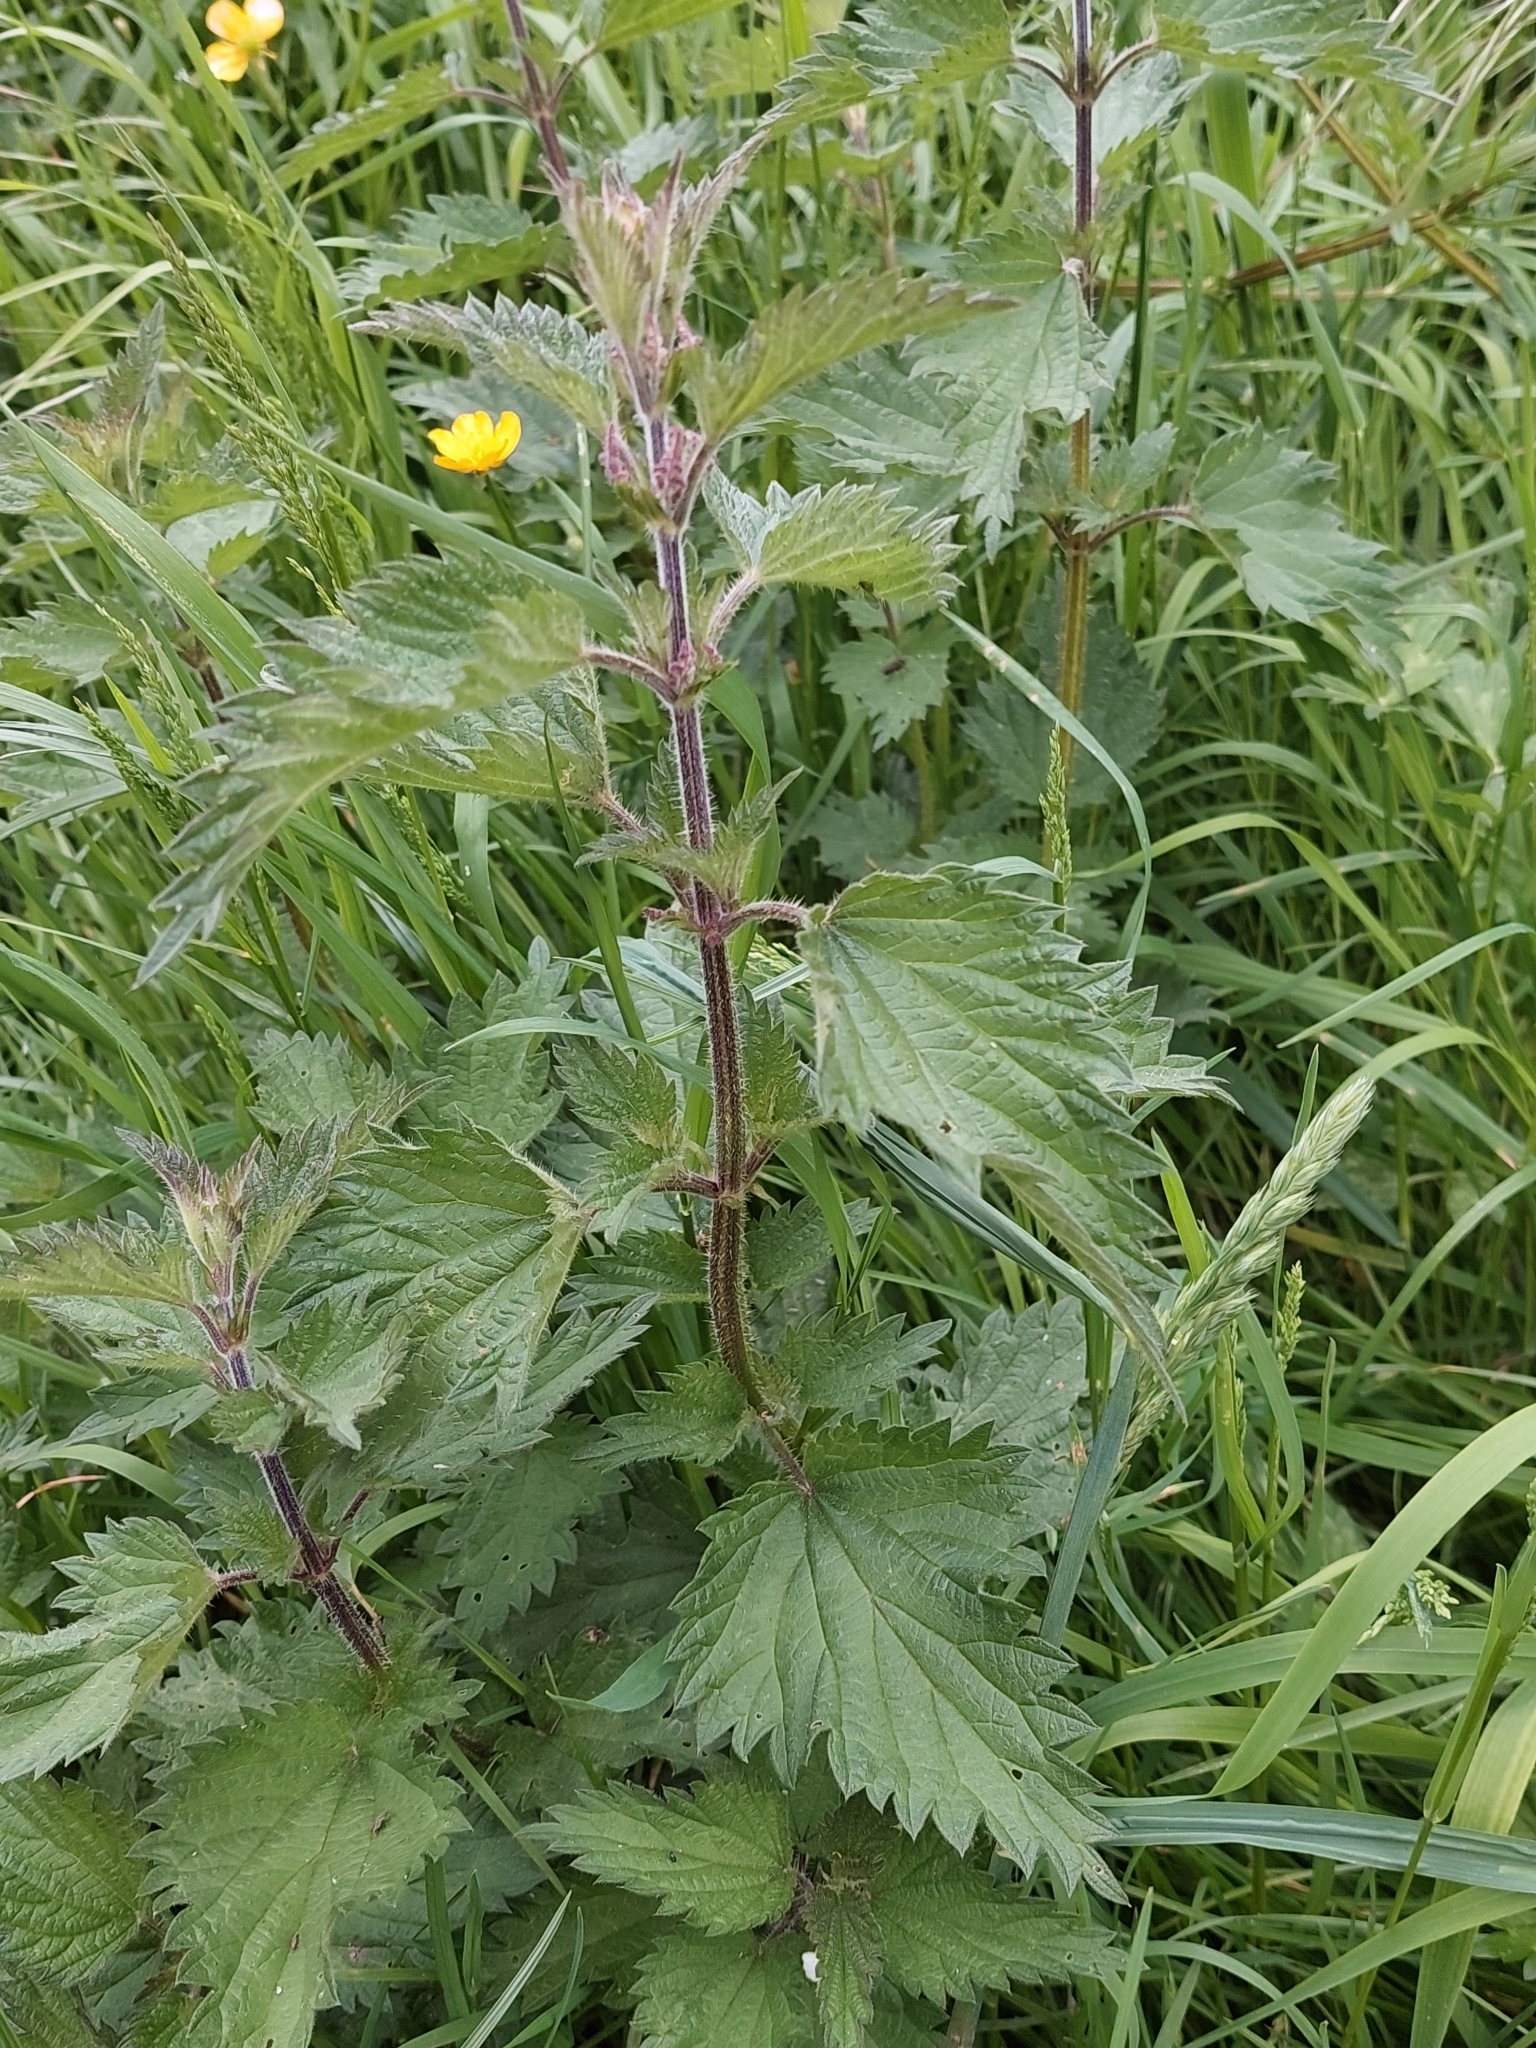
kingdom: Plantae
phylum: Tracheophyta
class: Magnoliopsida
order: Rosales
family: Urticaceae
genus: Urtica
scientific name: Urtica dioica
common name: Common nettle
